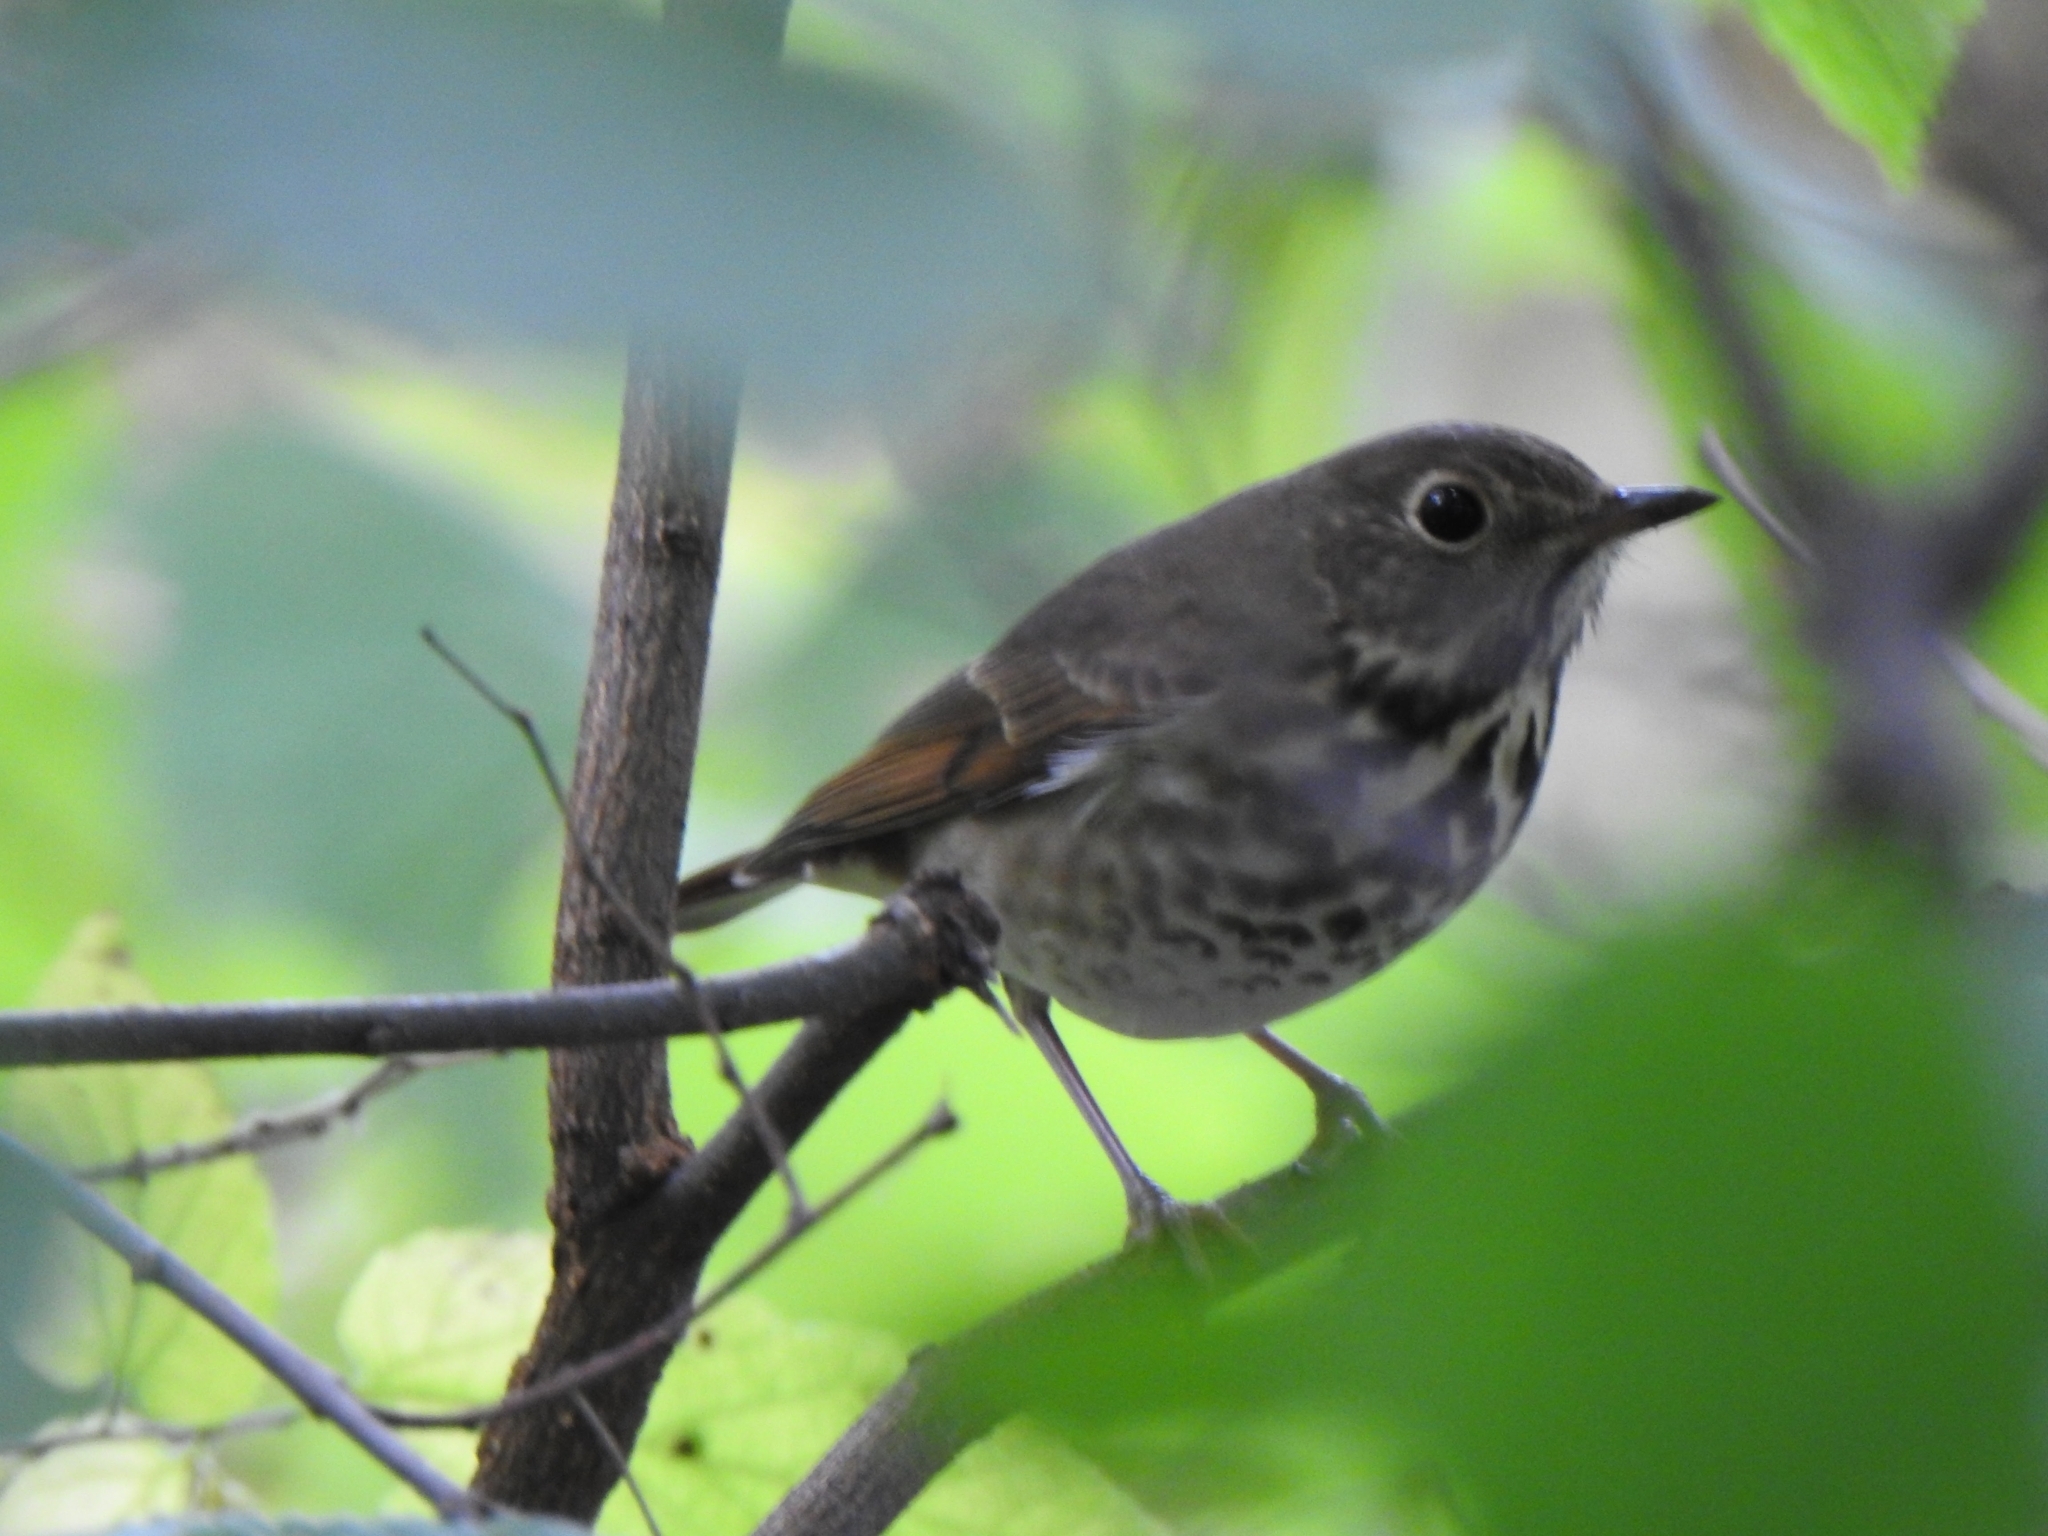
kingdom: Animalia
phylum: Chordata
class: Aves
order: Passeriformes
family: Turdidae
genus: Catharus
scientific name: Catharus guttatus
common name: Hermit thrush
